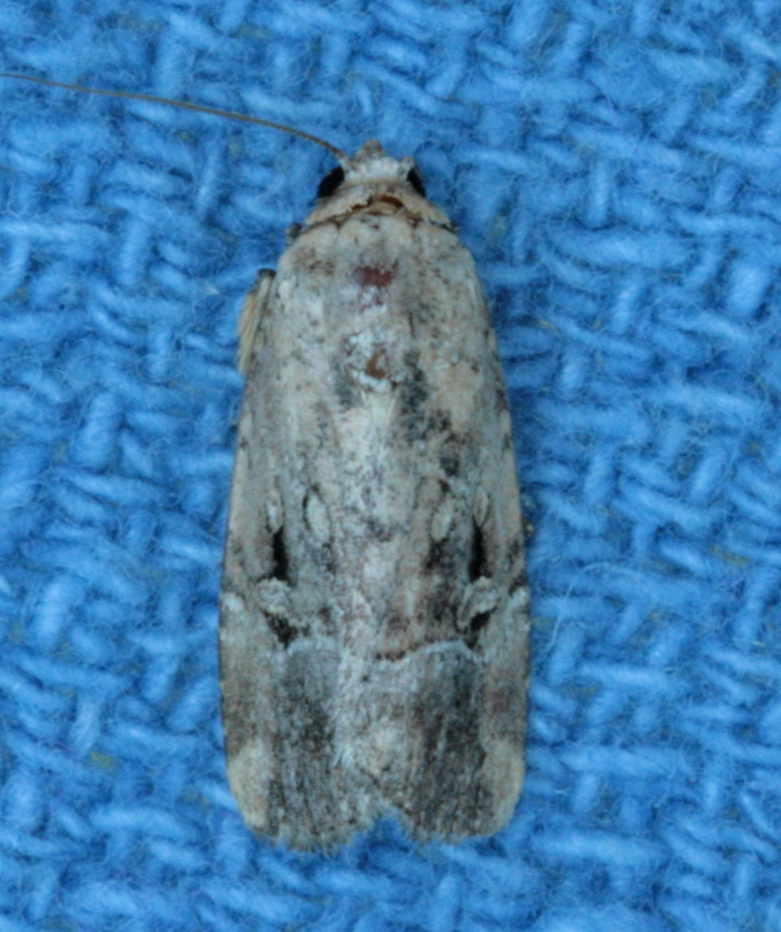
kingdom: Animalia
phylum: Arthropoda
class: Insecta
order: Lepidoptera
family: Noctuidae
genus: Elaphria
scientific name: Elaphria chalcedonia
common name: Chalcedony midget
